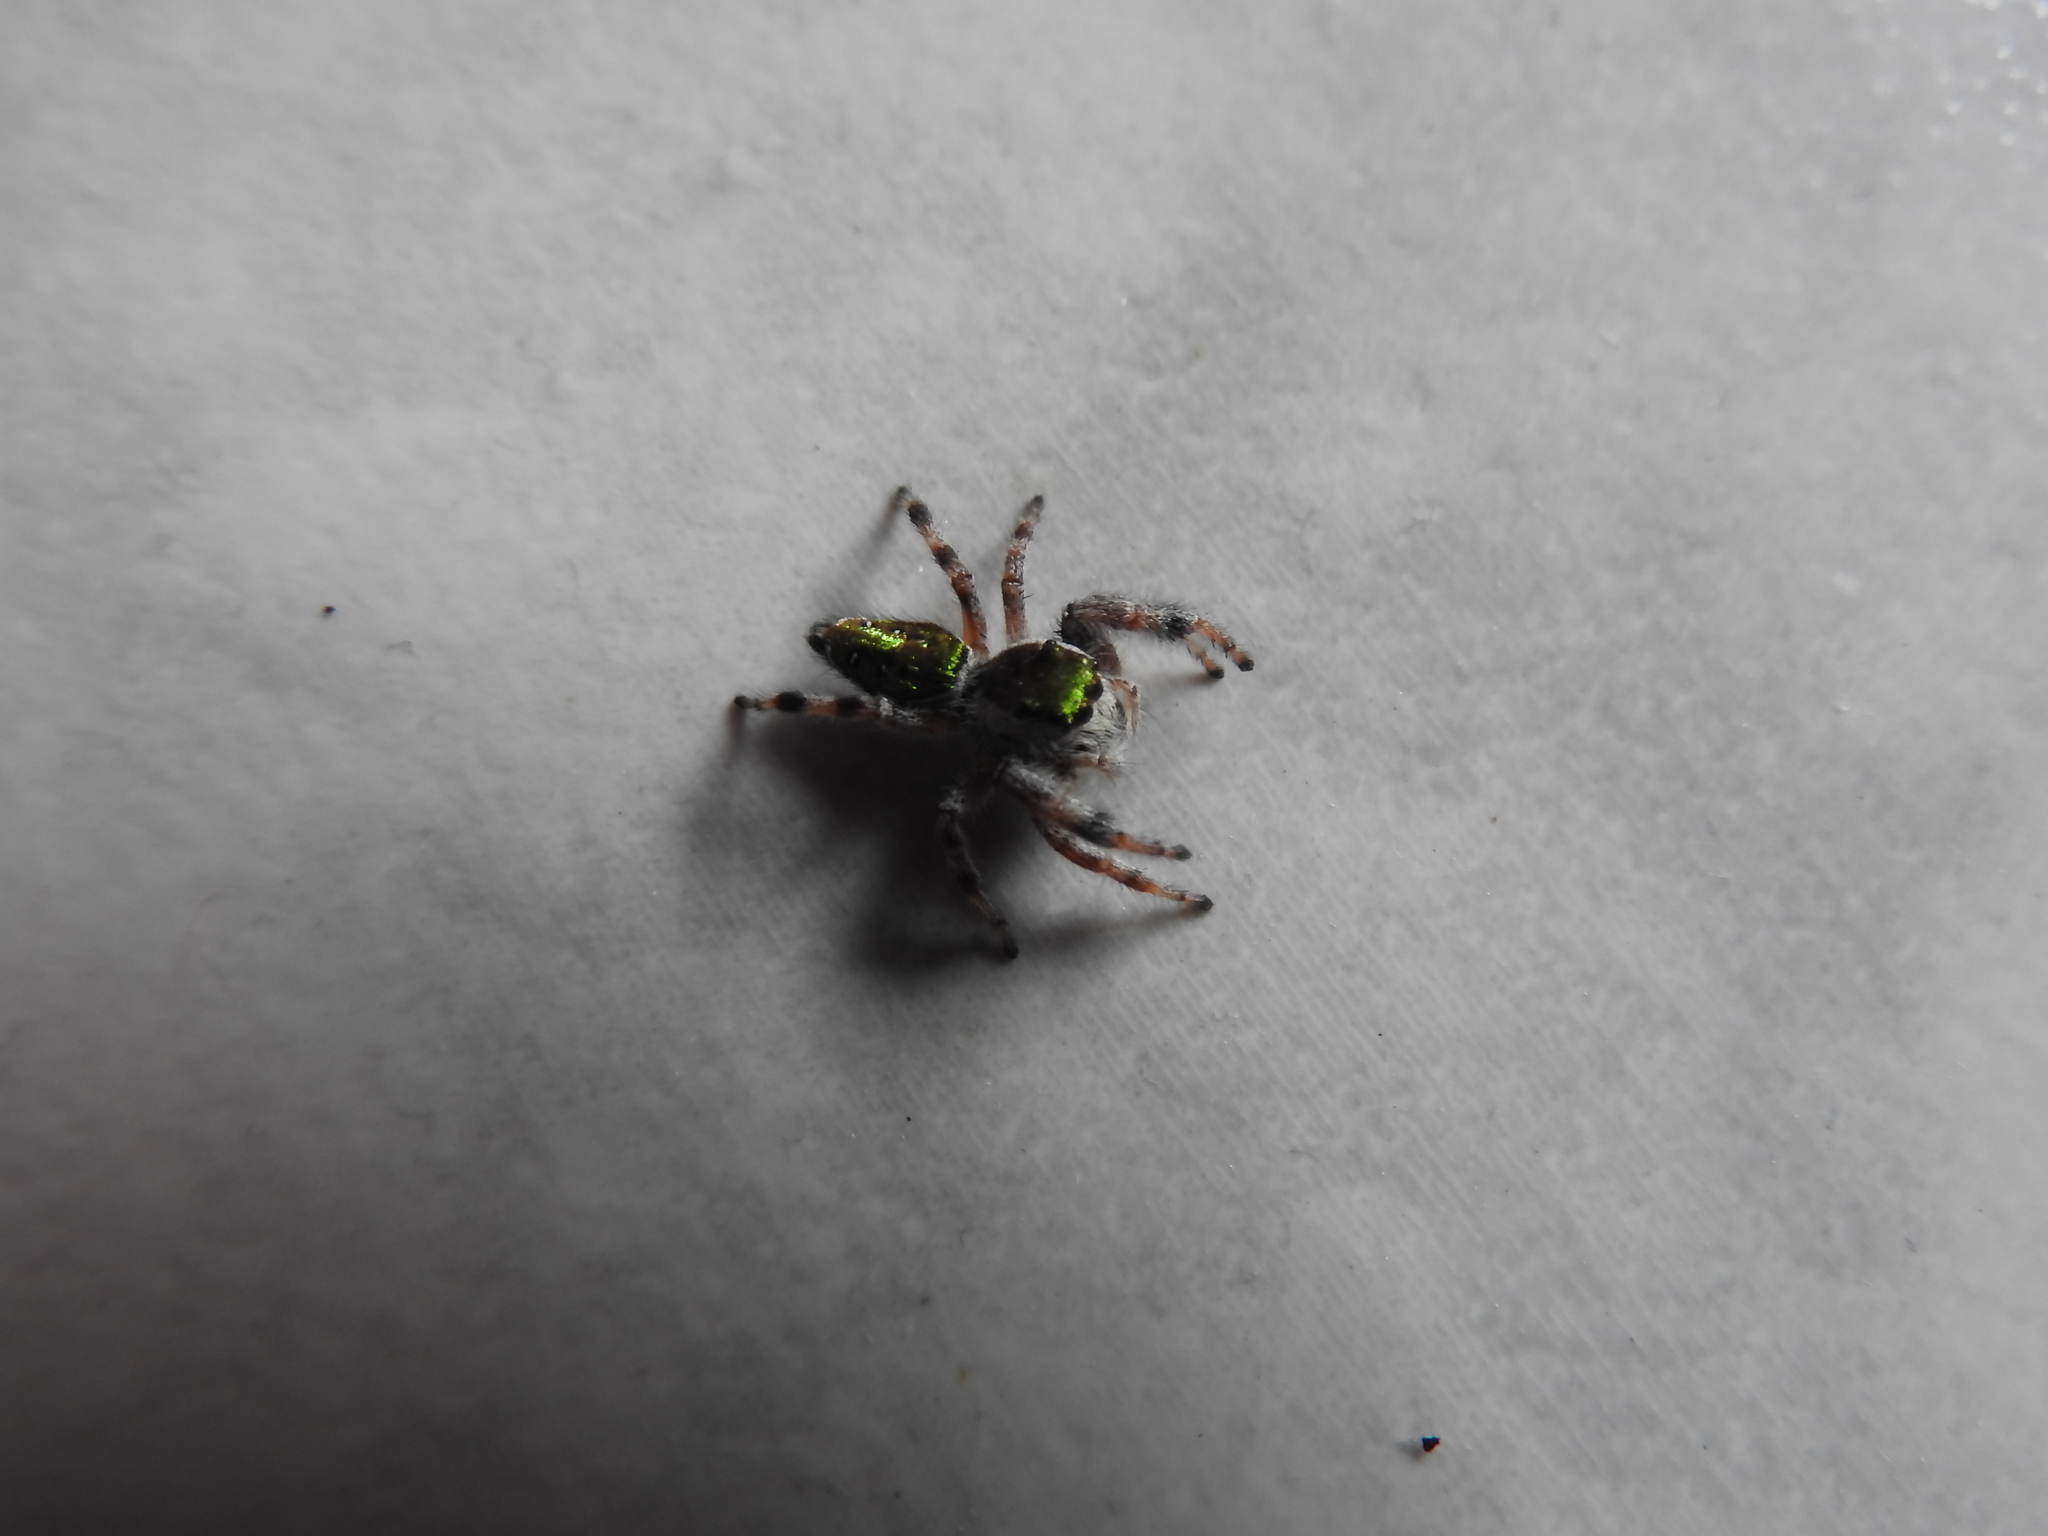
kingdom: Animalia
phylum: Arthropoda
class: Arachnida
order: Araneae
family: Salticidae
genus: Paraphidippus
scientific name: Paraphidippus aurantius
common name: Jumping spiders
